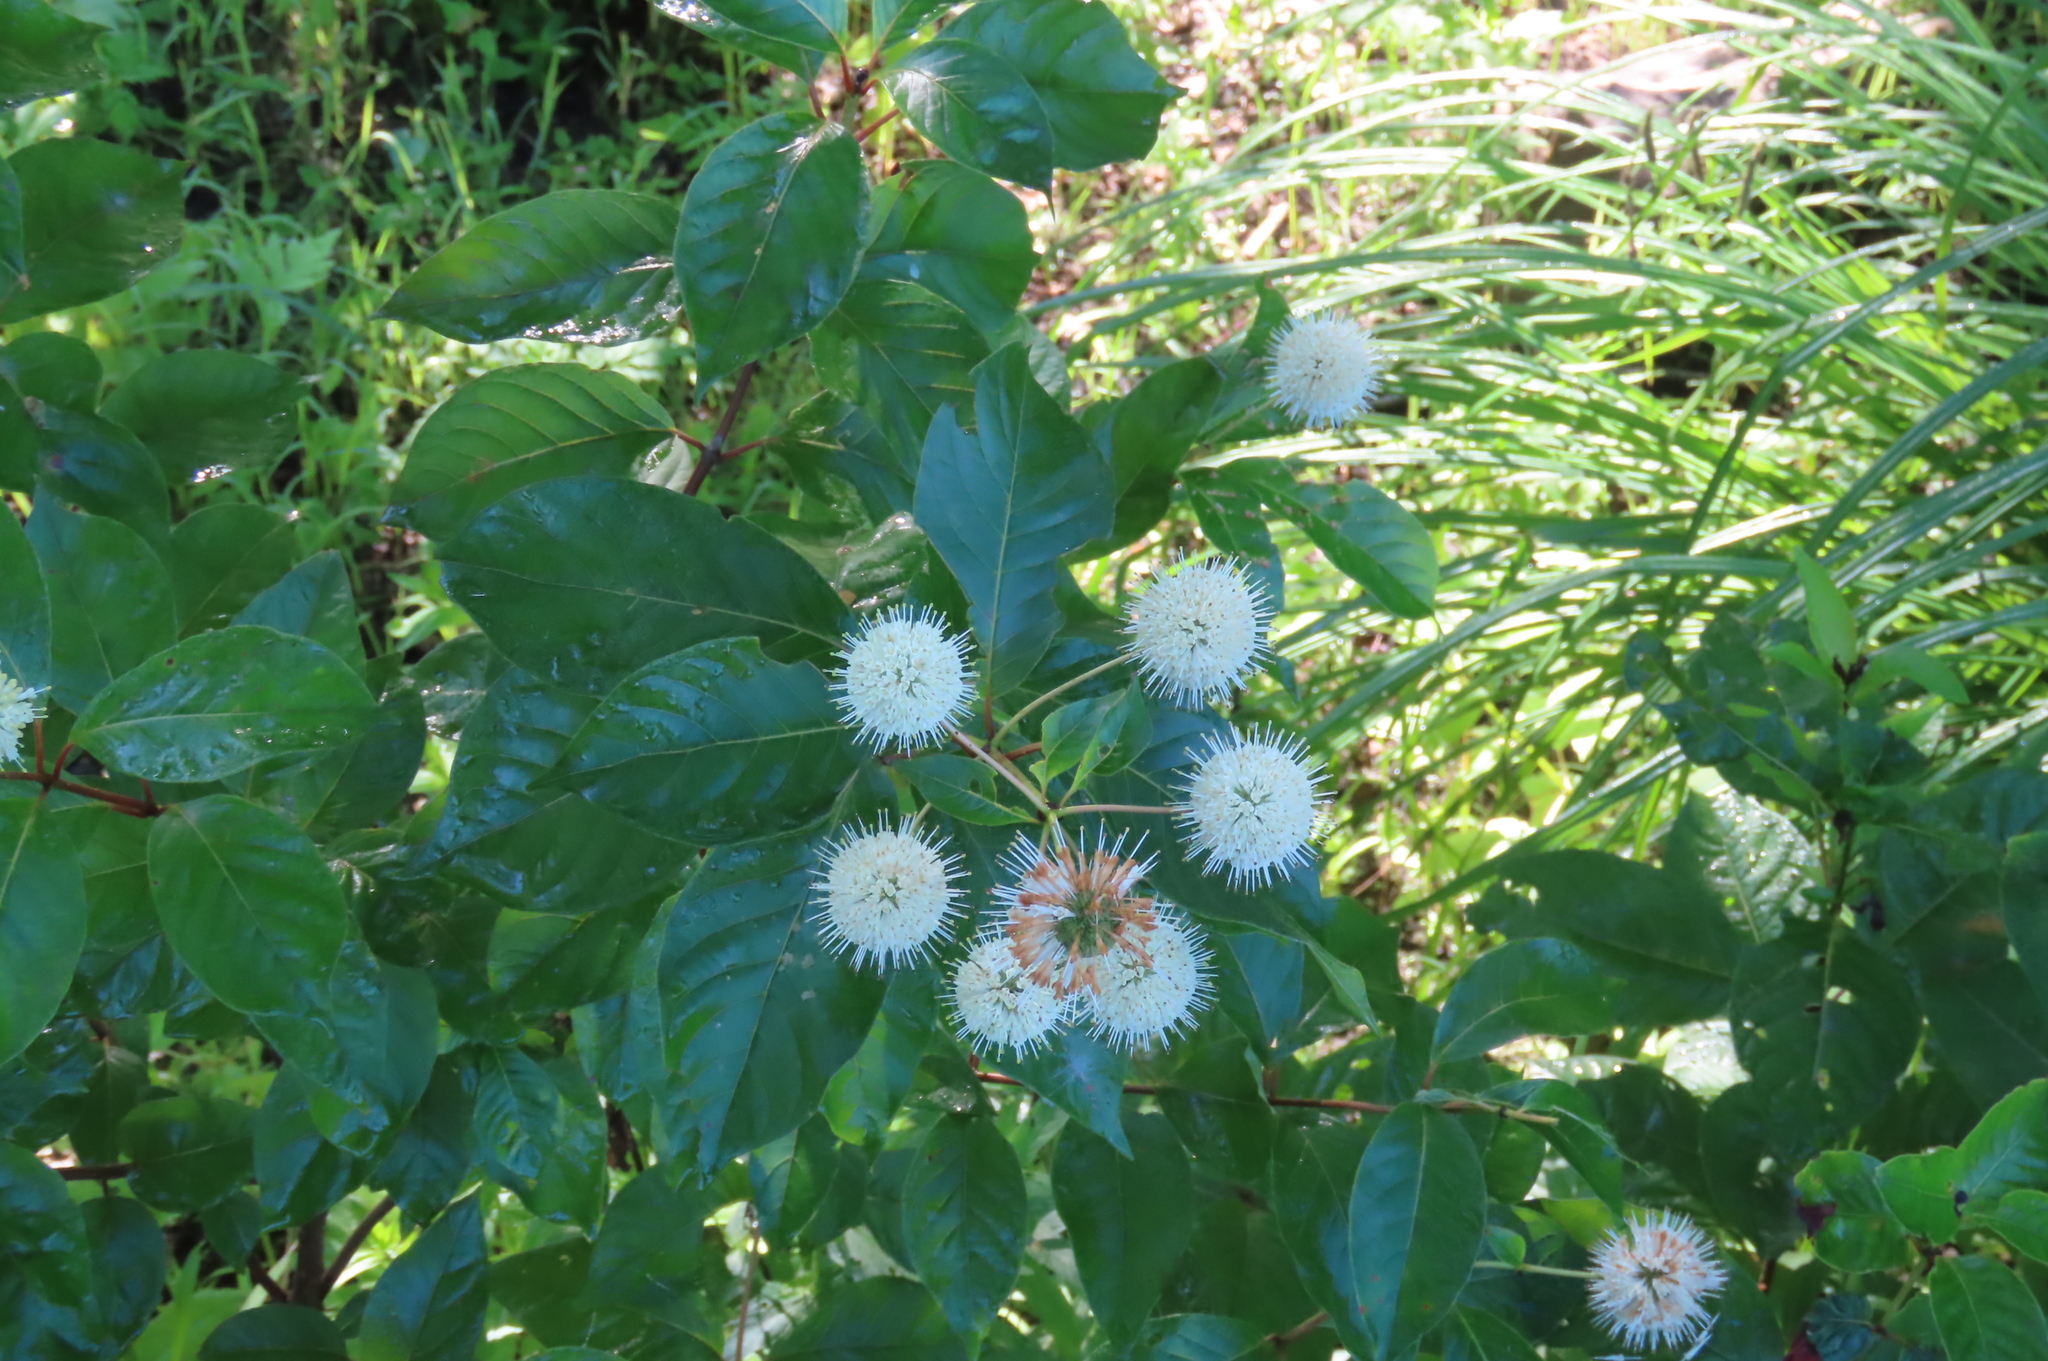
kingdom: Plantae
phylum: Tracheophyta
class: Magnoliopsida
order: Gentianales
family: Rubiaceae
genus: Cephalanthus
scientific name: Cephalanthus occidentalis
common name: Button-willow
